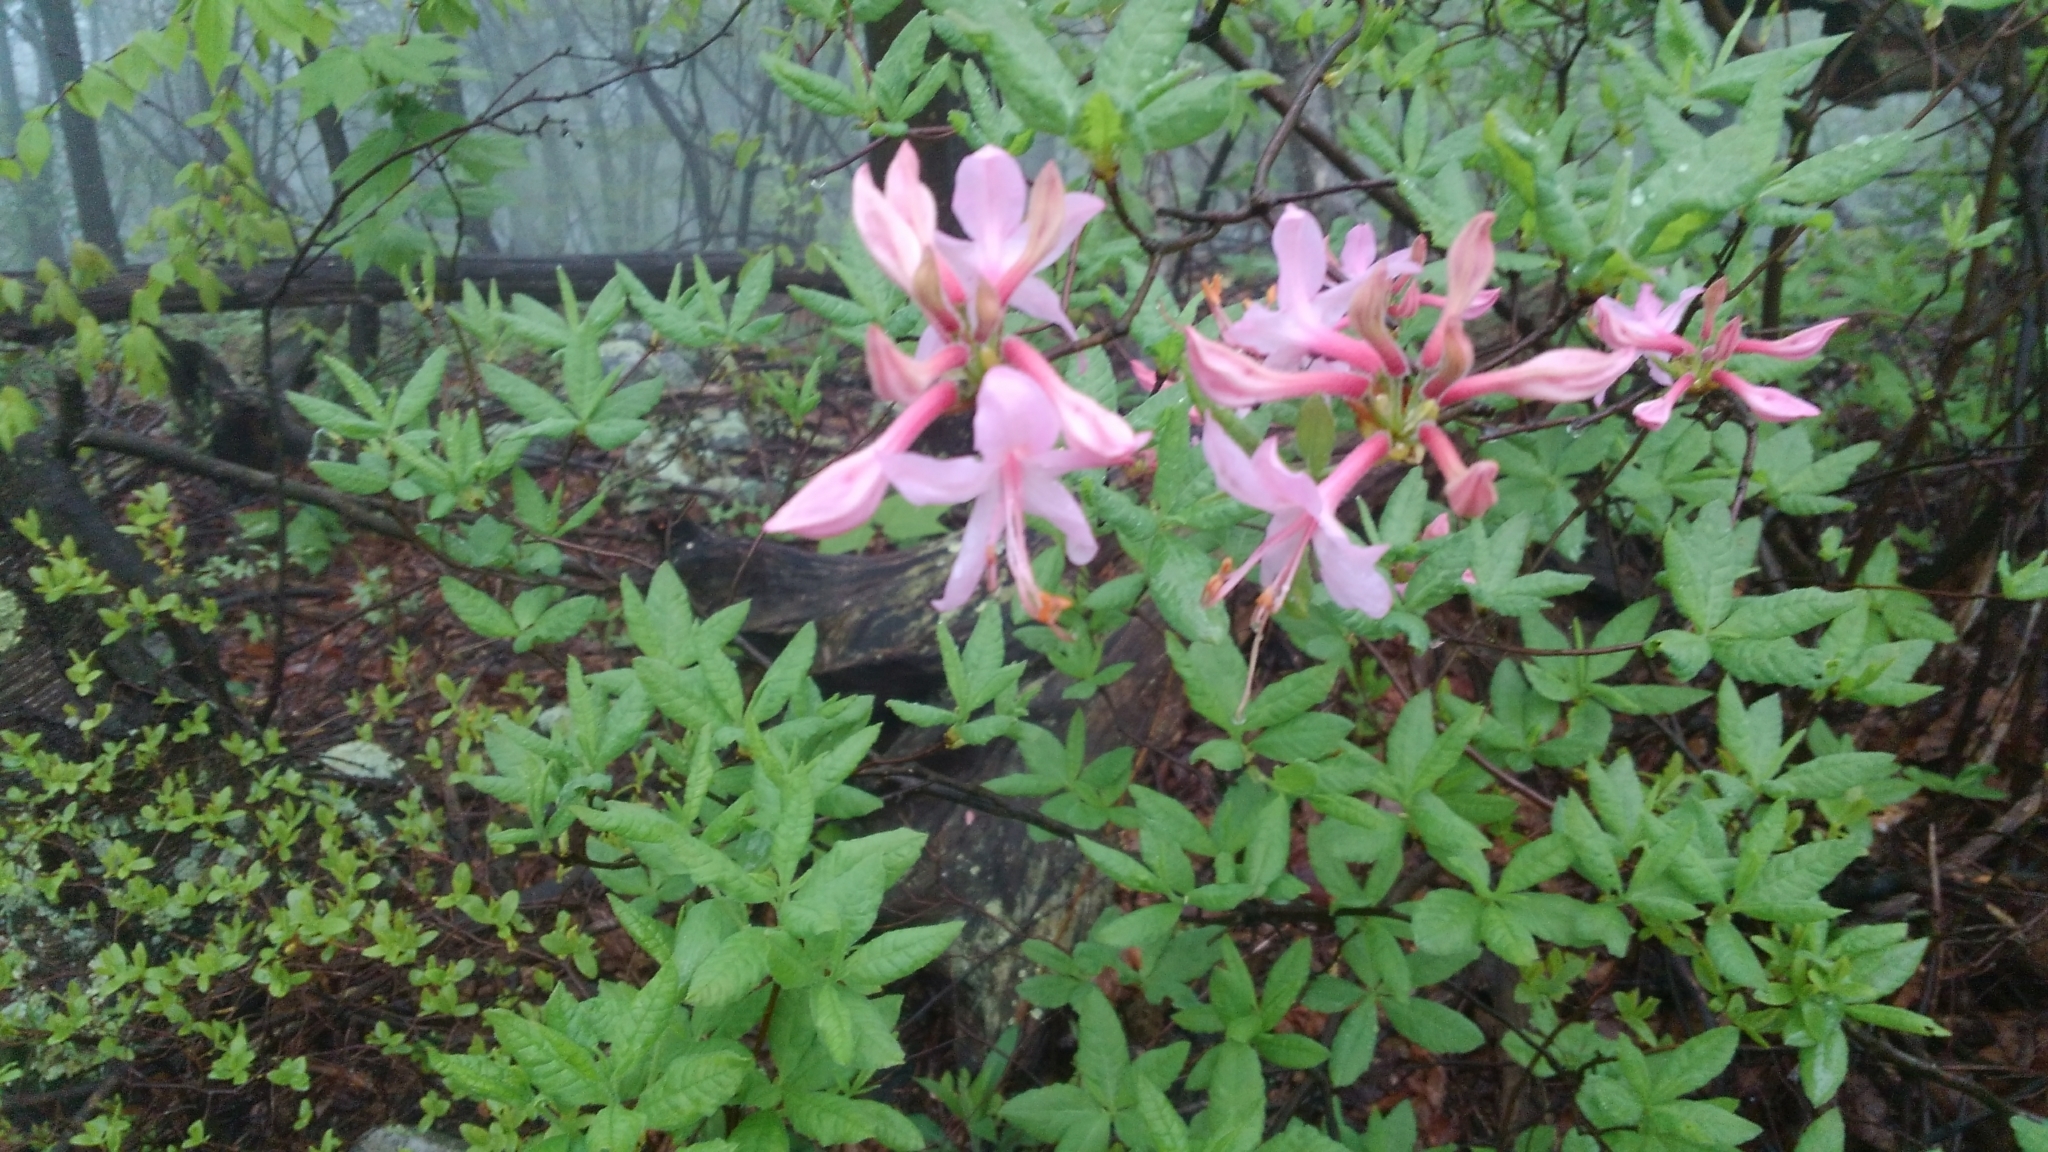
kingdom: Plantae
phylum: Tracheophyta
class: Magnoliopsida
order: Ericales
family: Ericaceae
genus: Rhododendron
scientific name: Rhododendron periclymenoides
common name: Election-pink
